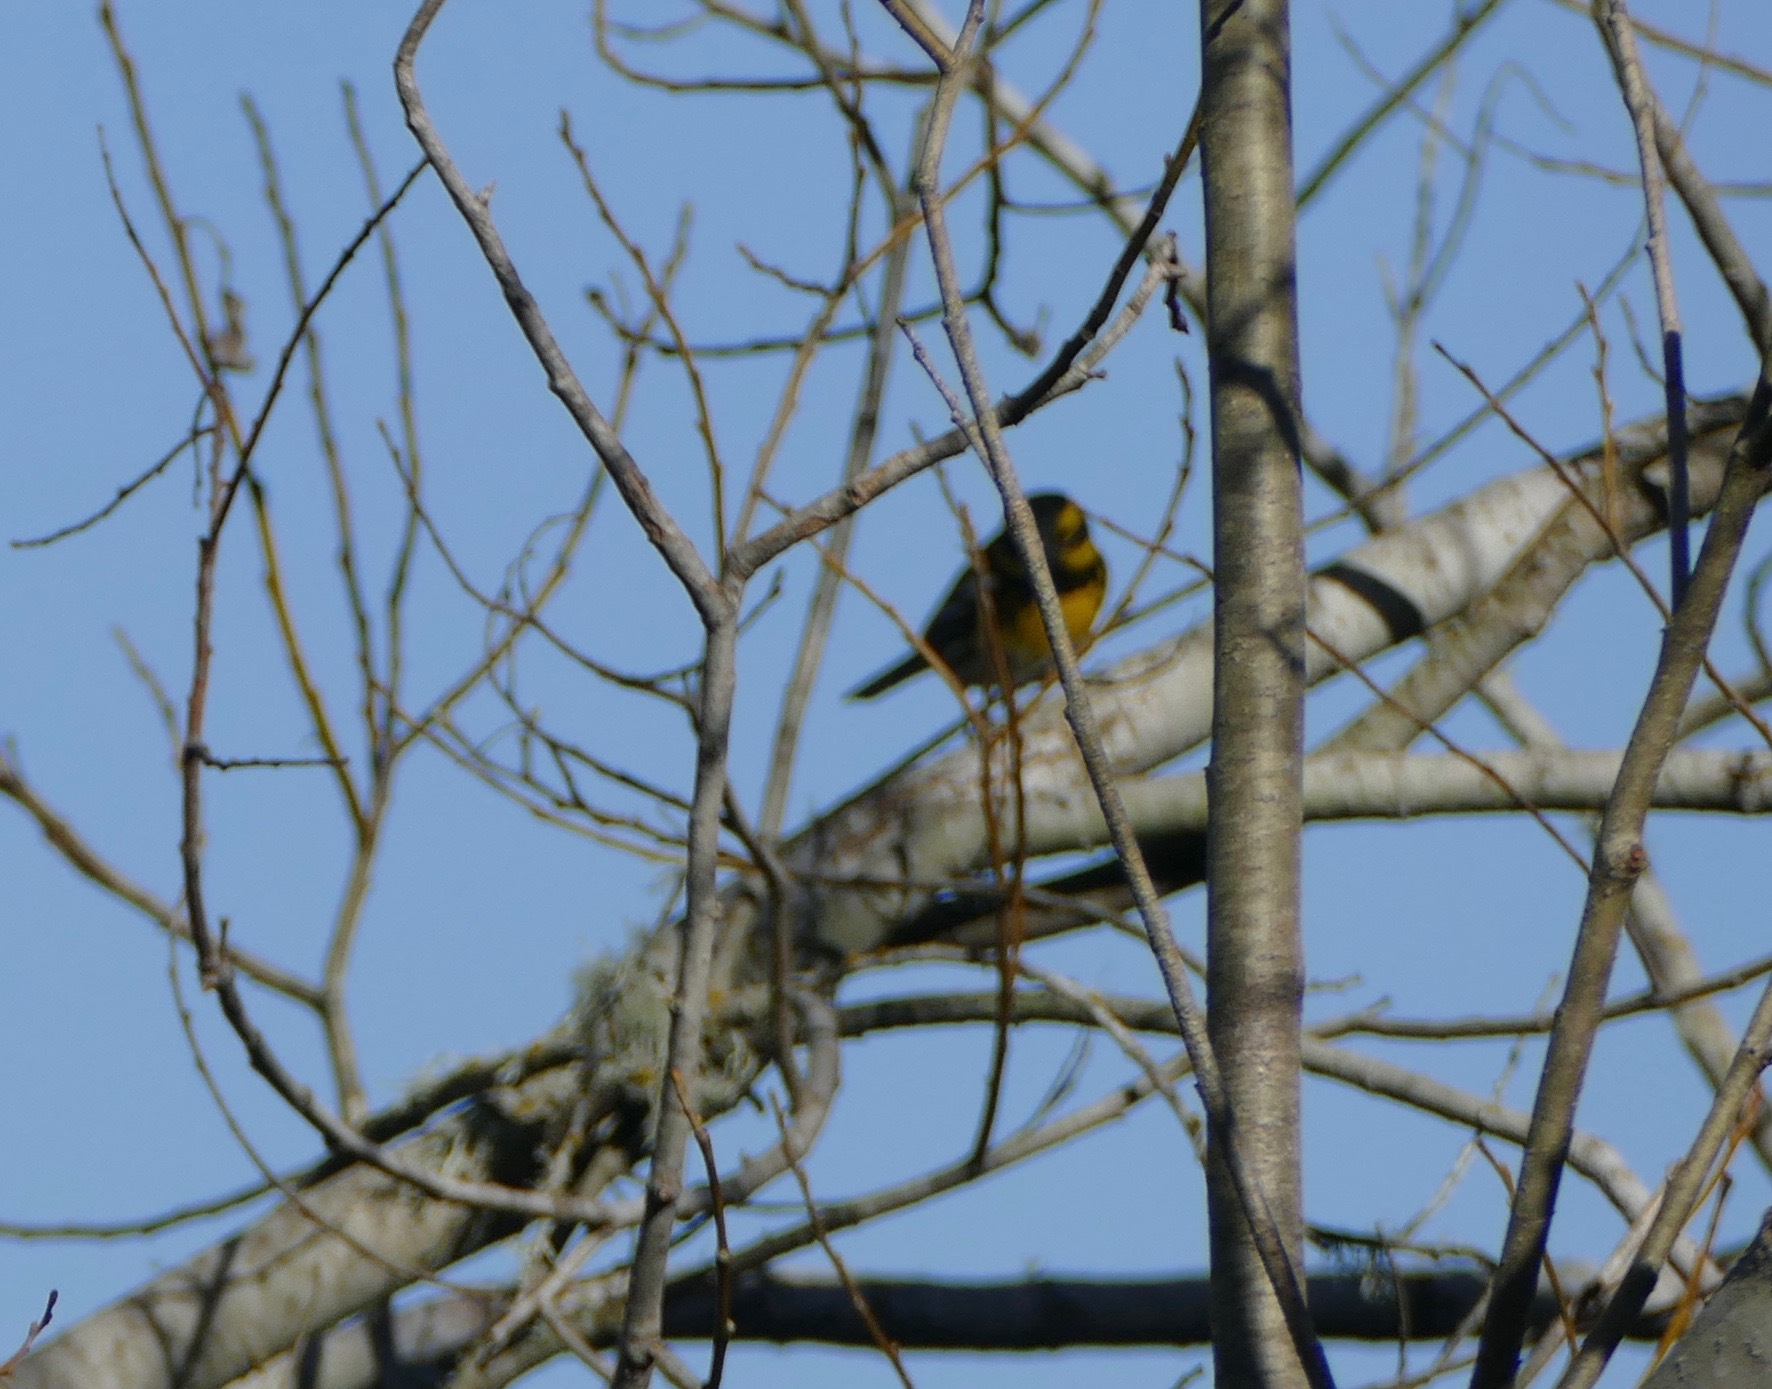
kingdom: Animalia
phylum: Chordata
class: Aves
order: Passeriformes
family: Parulidae
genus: Setophaga
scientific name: Setophaga townsendi
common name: Townsend's warbler
